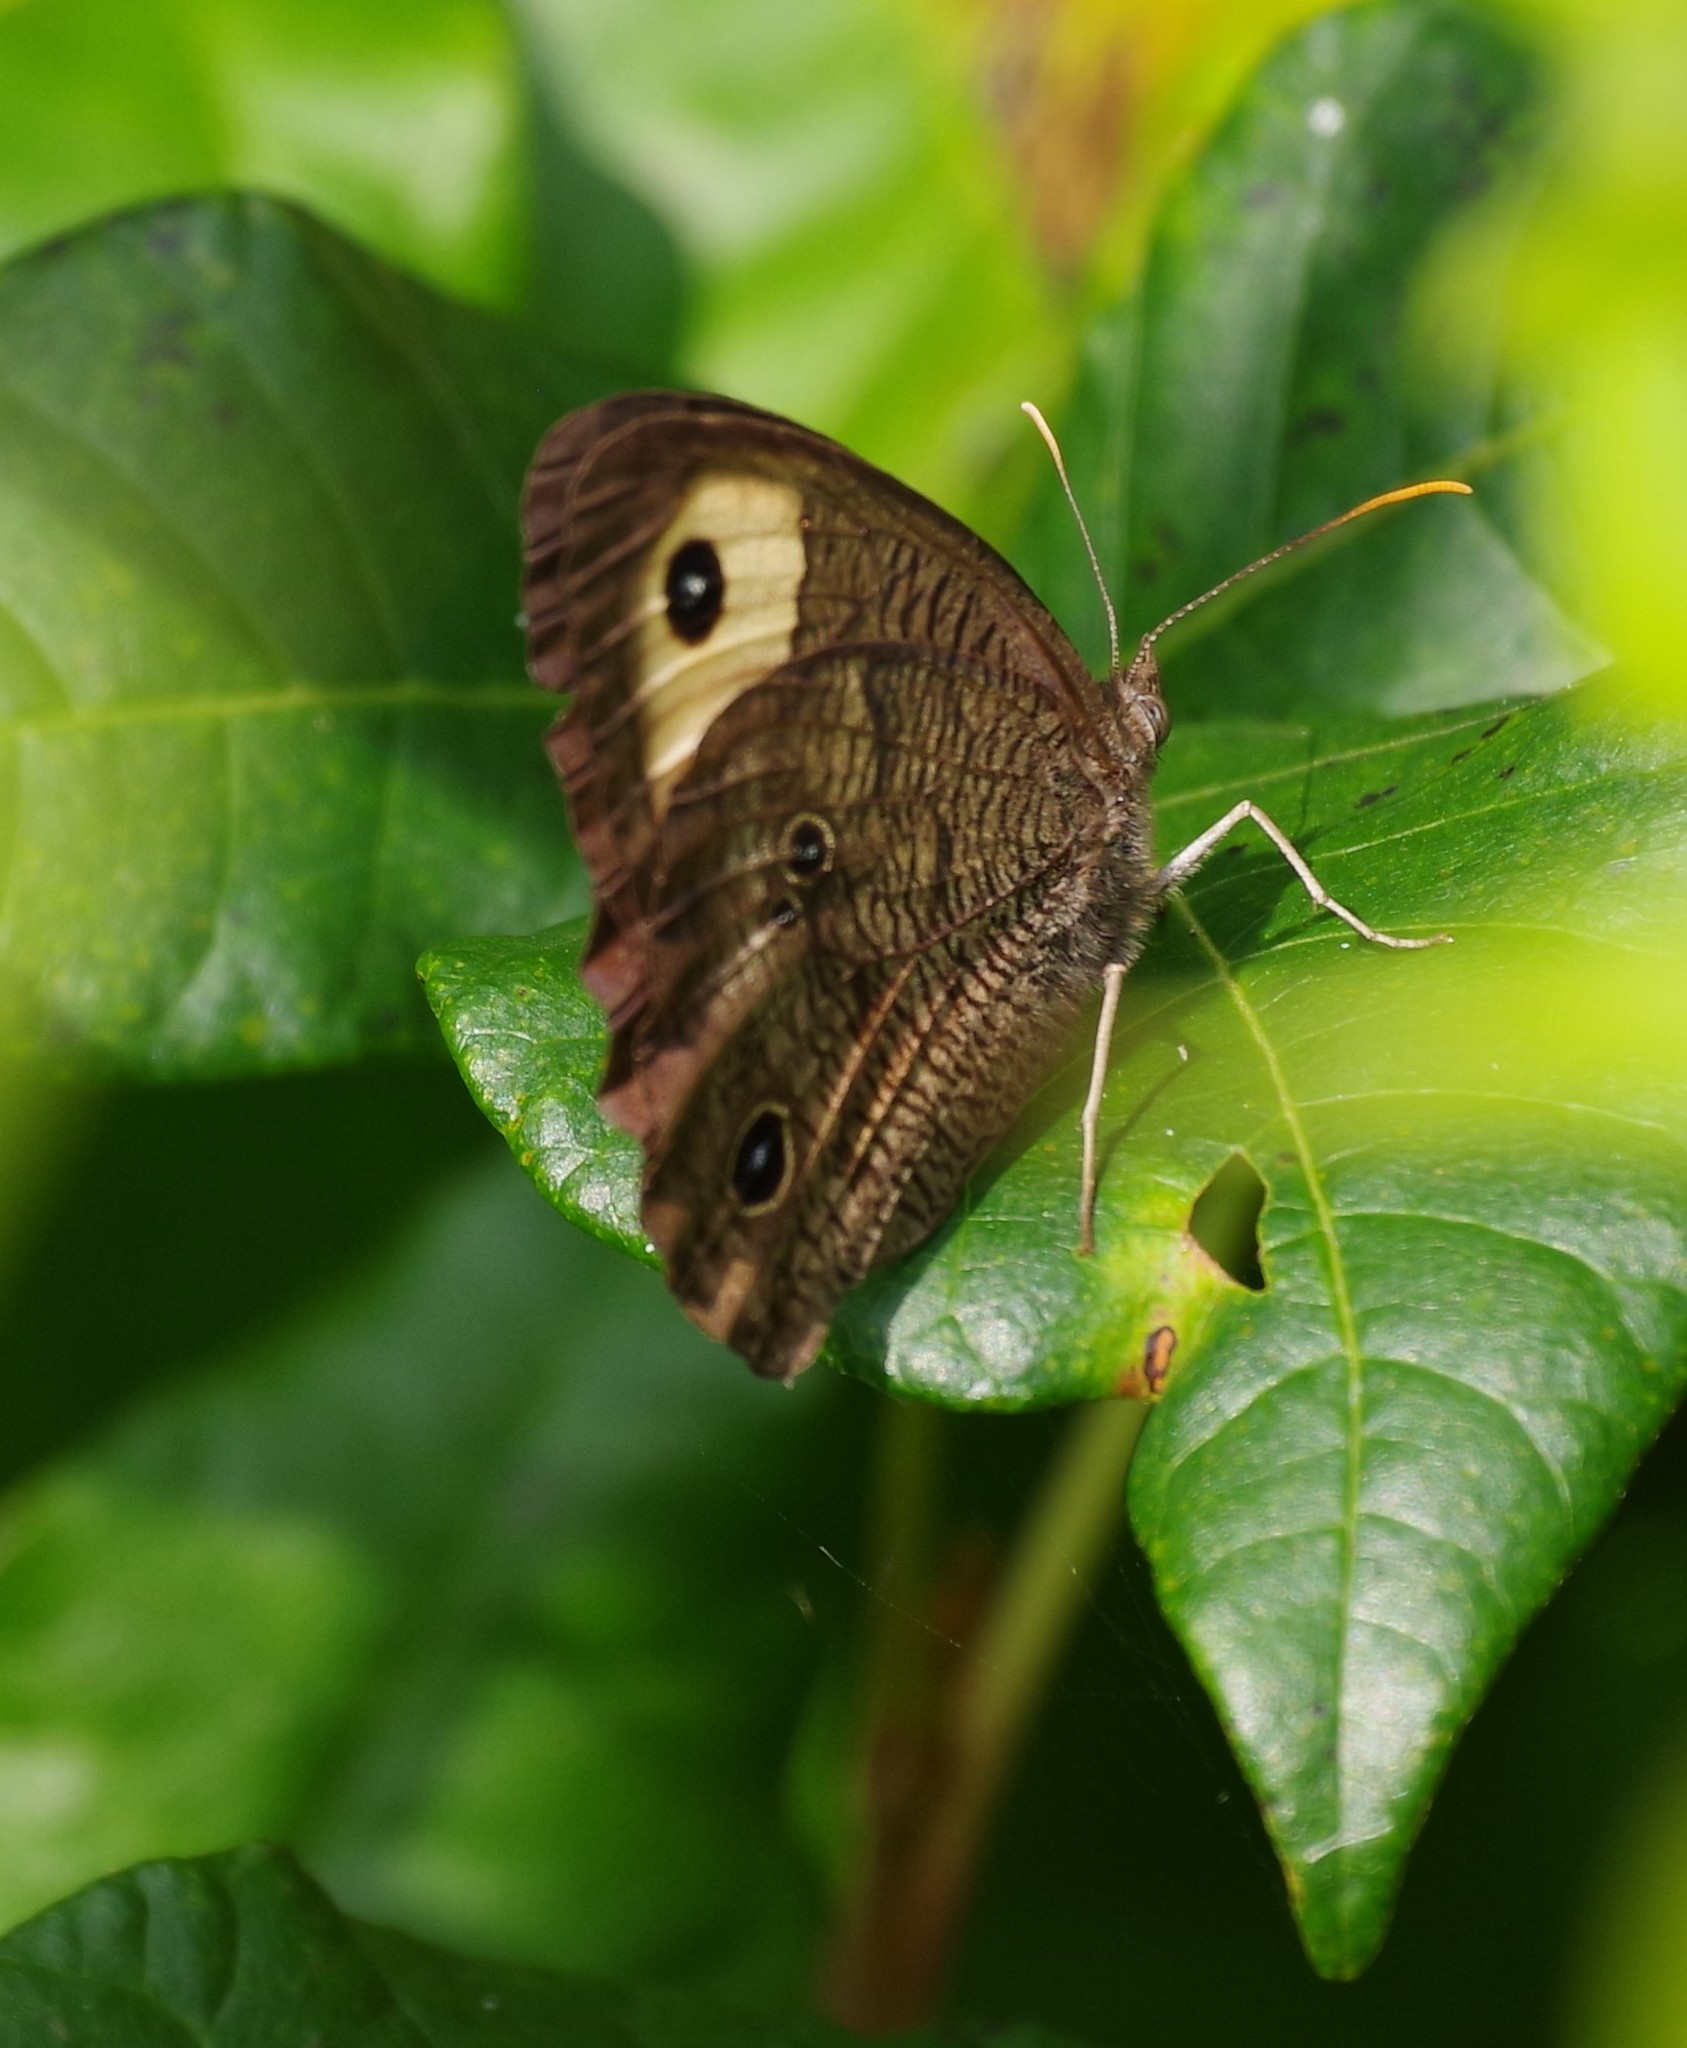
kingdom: Animalia
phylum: Arthropoda
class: Insecta
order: Lepidoptera
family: Nymphalidae
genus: Cercyonis
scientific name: Cercyonis pegala
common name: Common wood-nymph
